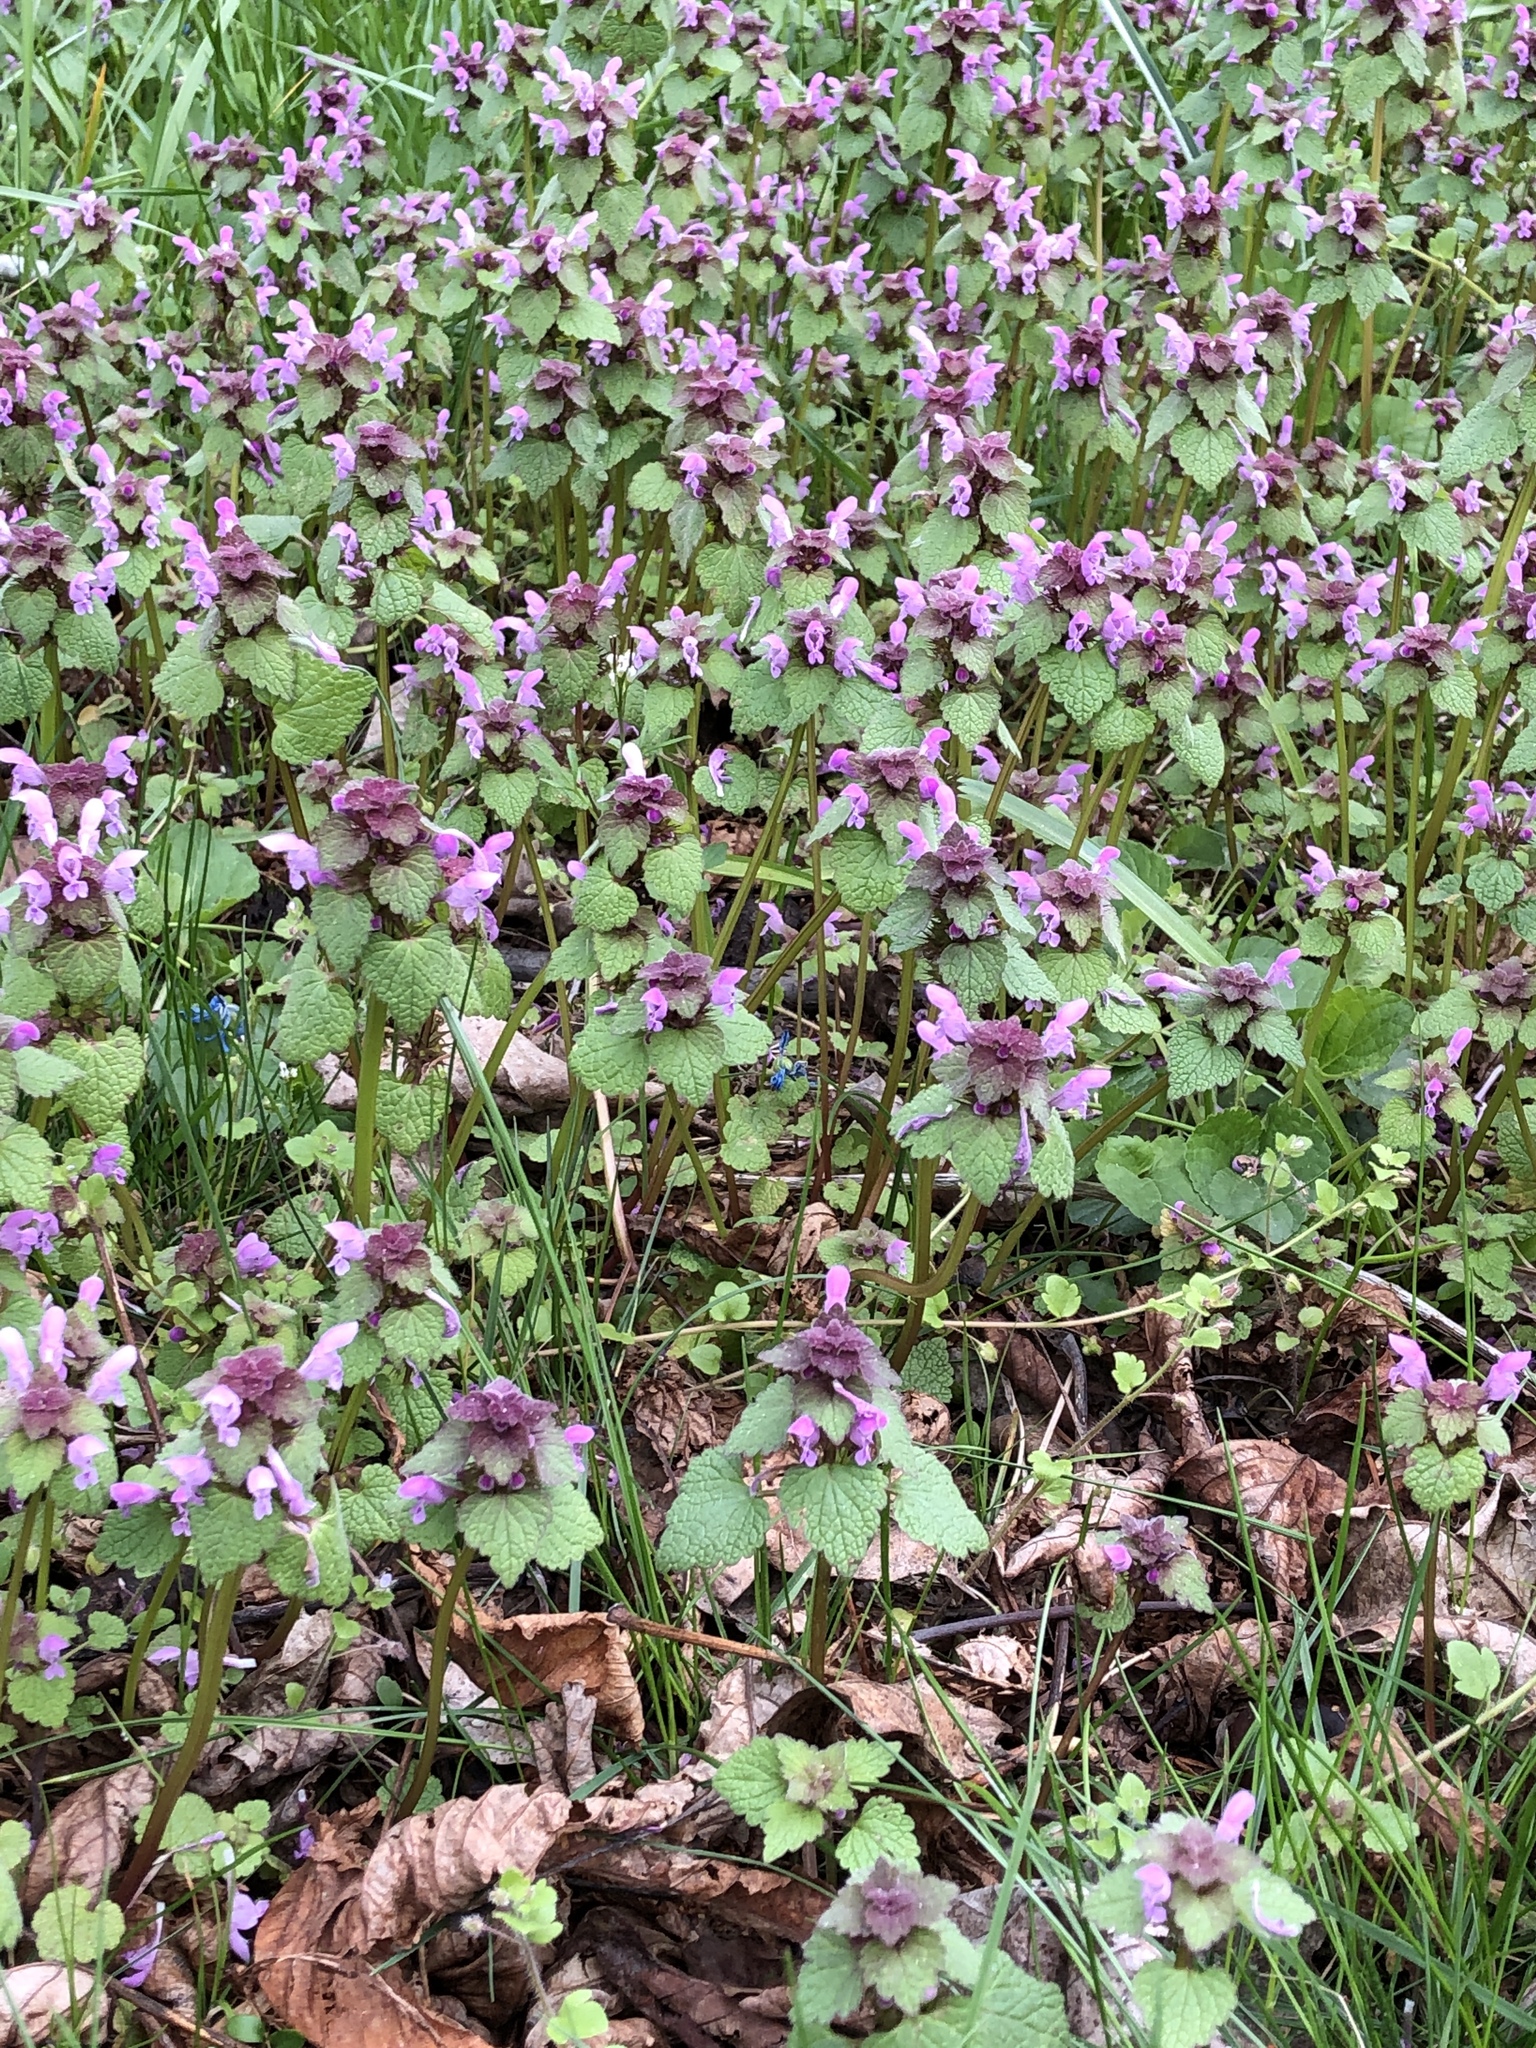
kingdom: Plantae
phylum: Tracheophyta
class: Magnoliopsida
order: Lamiales
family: Lamiaceae
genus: Lamium
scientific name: Lamium purpureum
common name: Red dead-nettle
